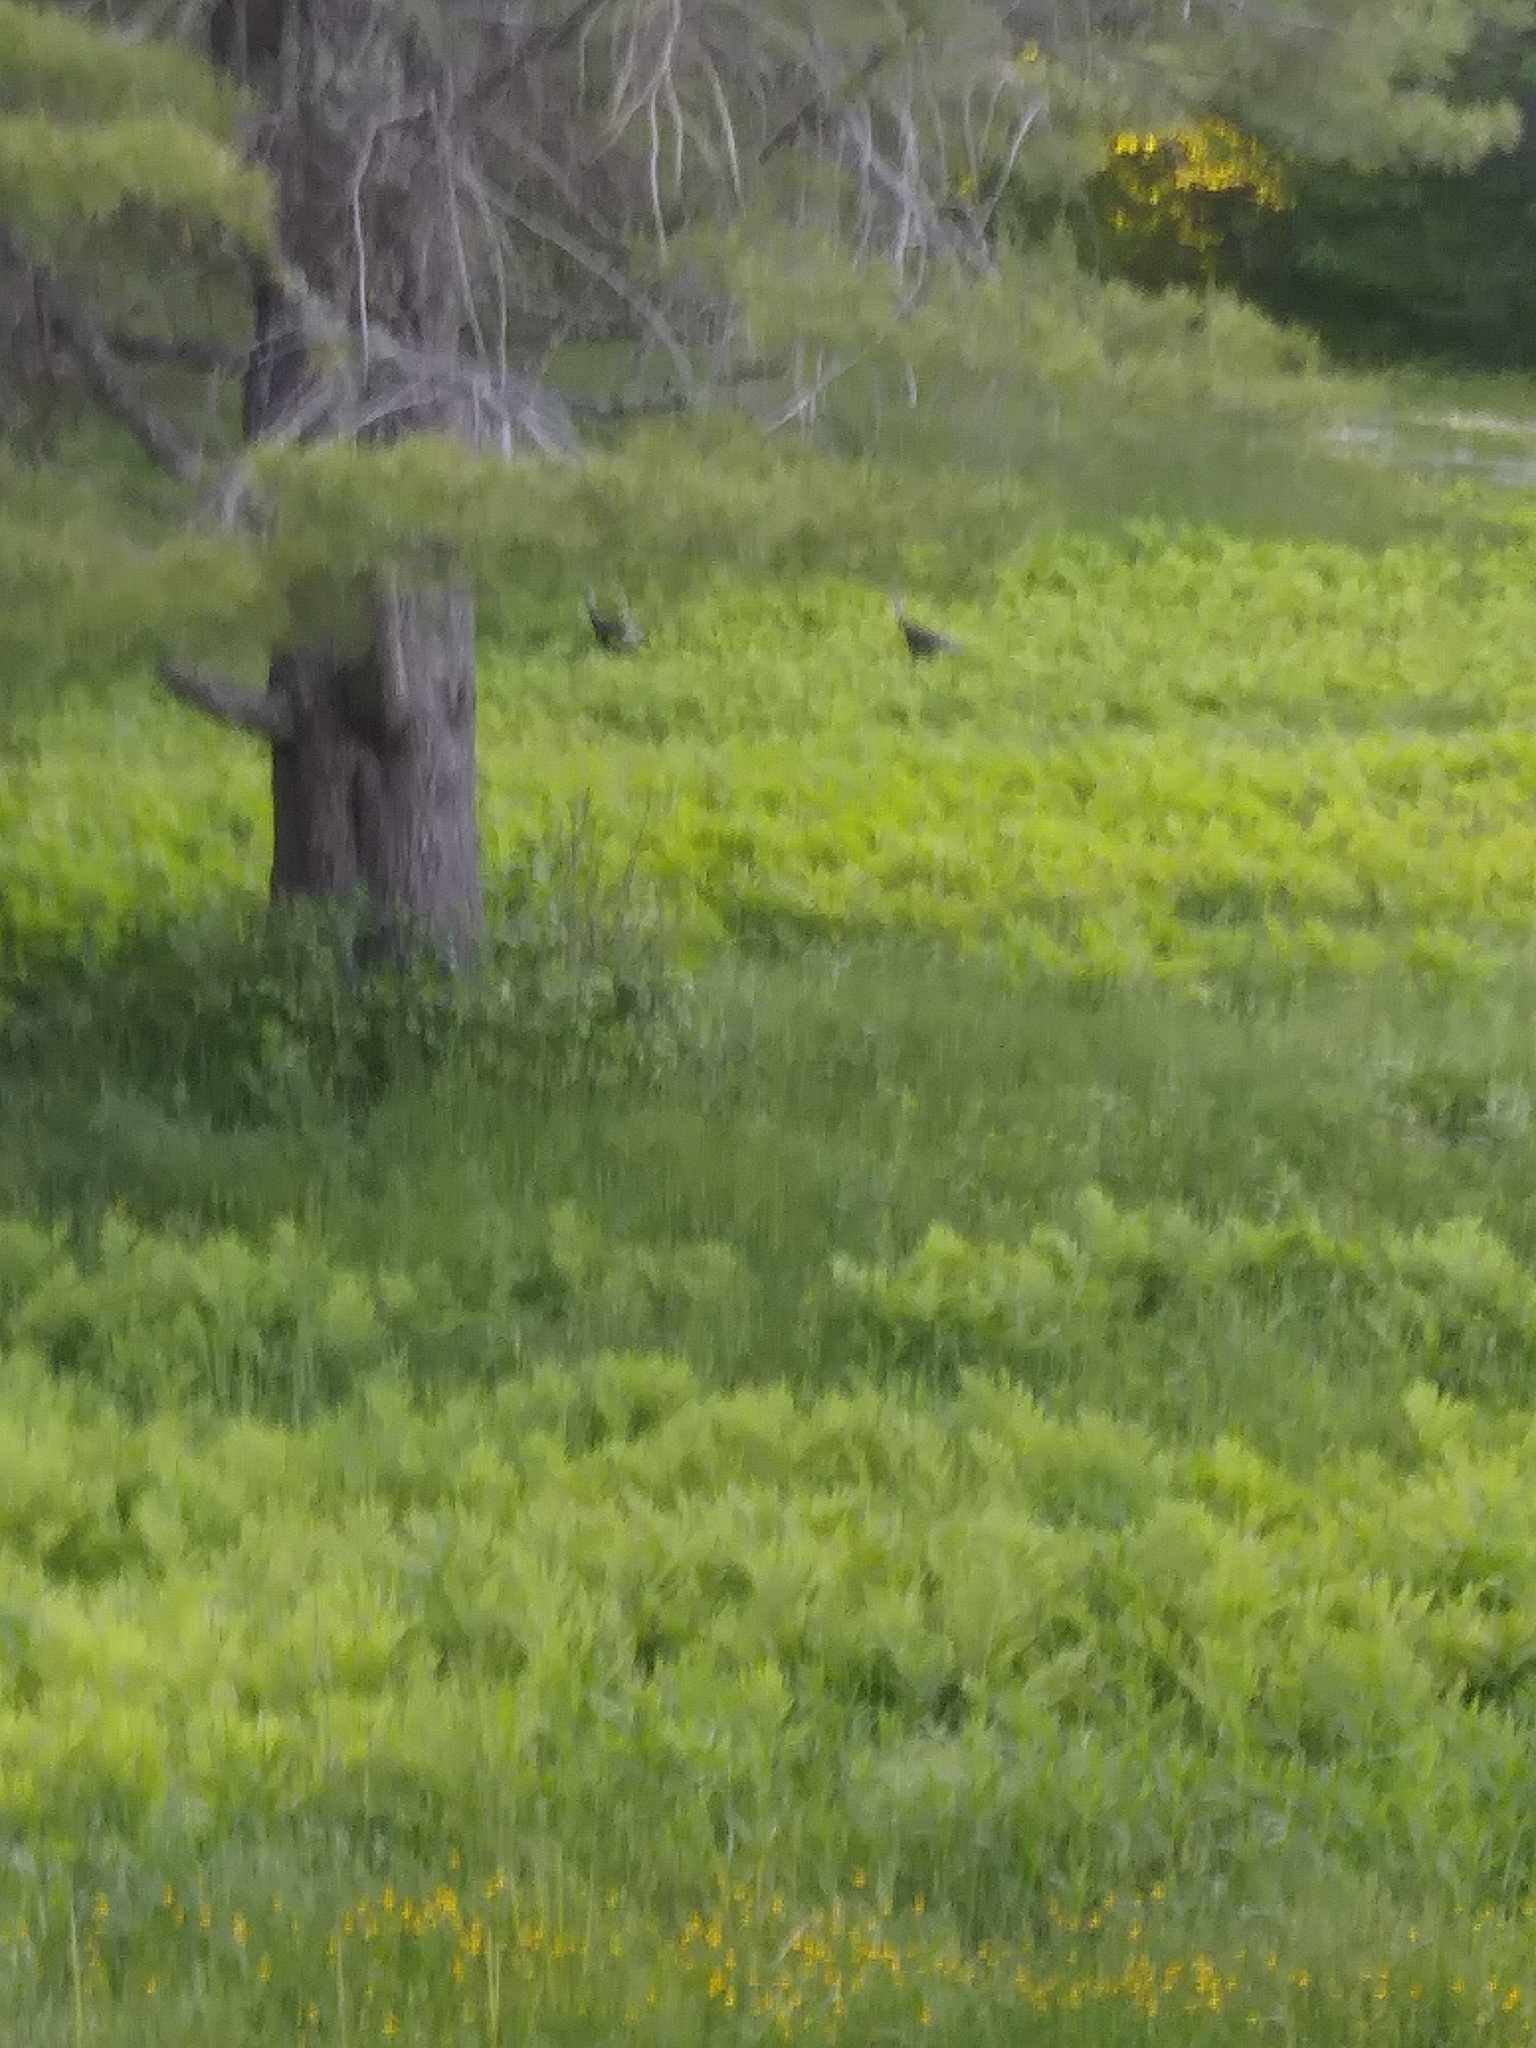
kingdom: Animalia
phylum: Chordata
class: Aves
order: Galliformes
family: Phasianidae
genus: Meleagris
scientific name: Meleagris gallopavo
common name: Wild turkey
